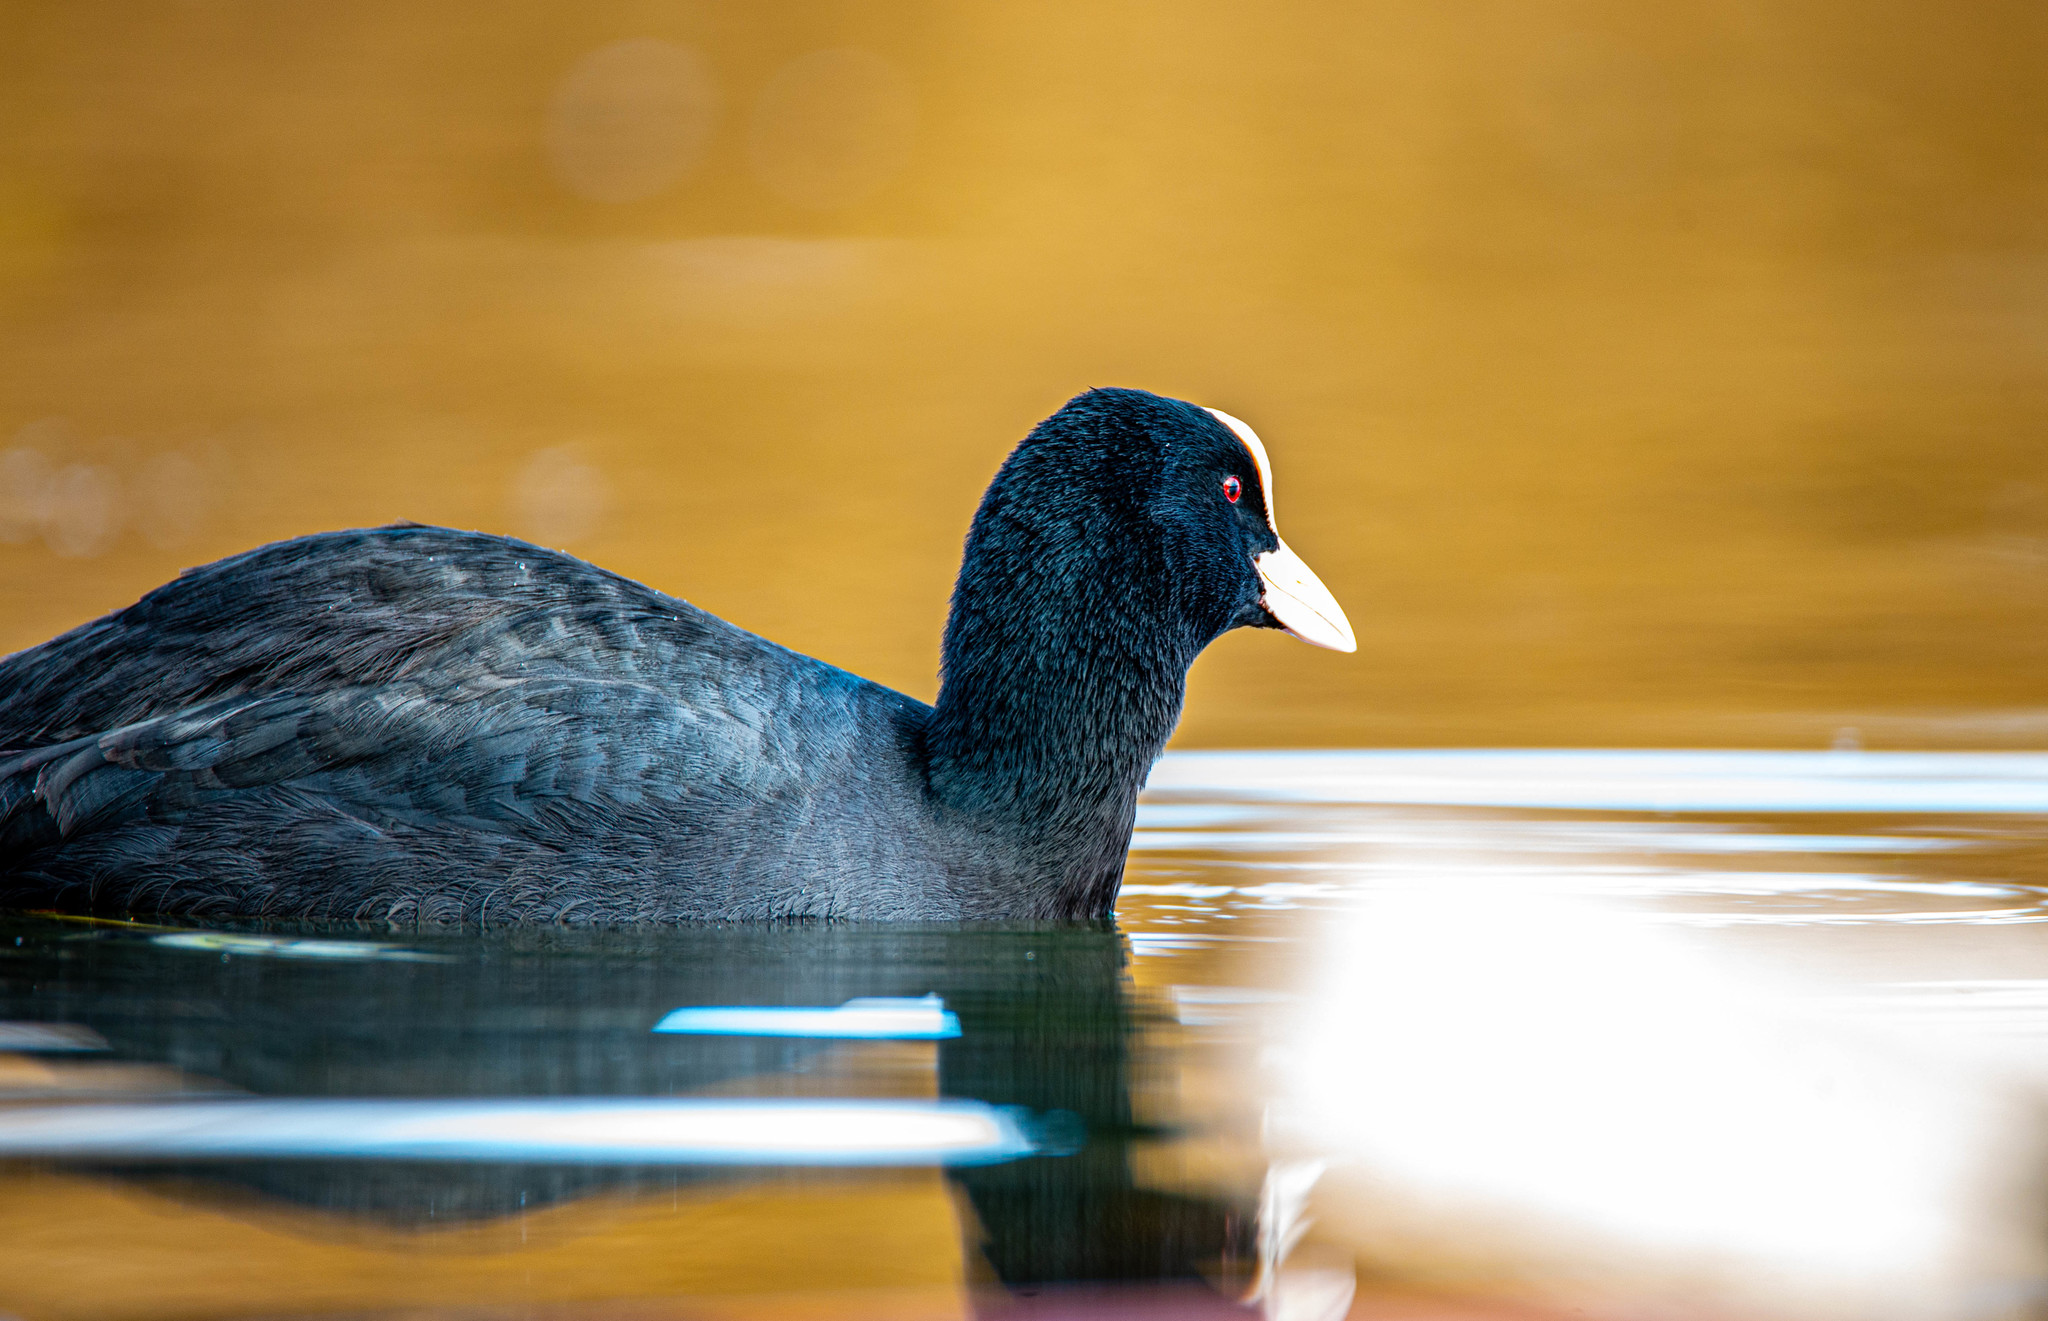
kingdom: Animalia
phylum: Chordata
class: Aves
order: Gruiformes
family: Rallidae
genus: Fulica
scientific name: Fulica atra
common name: Eurasian coot
